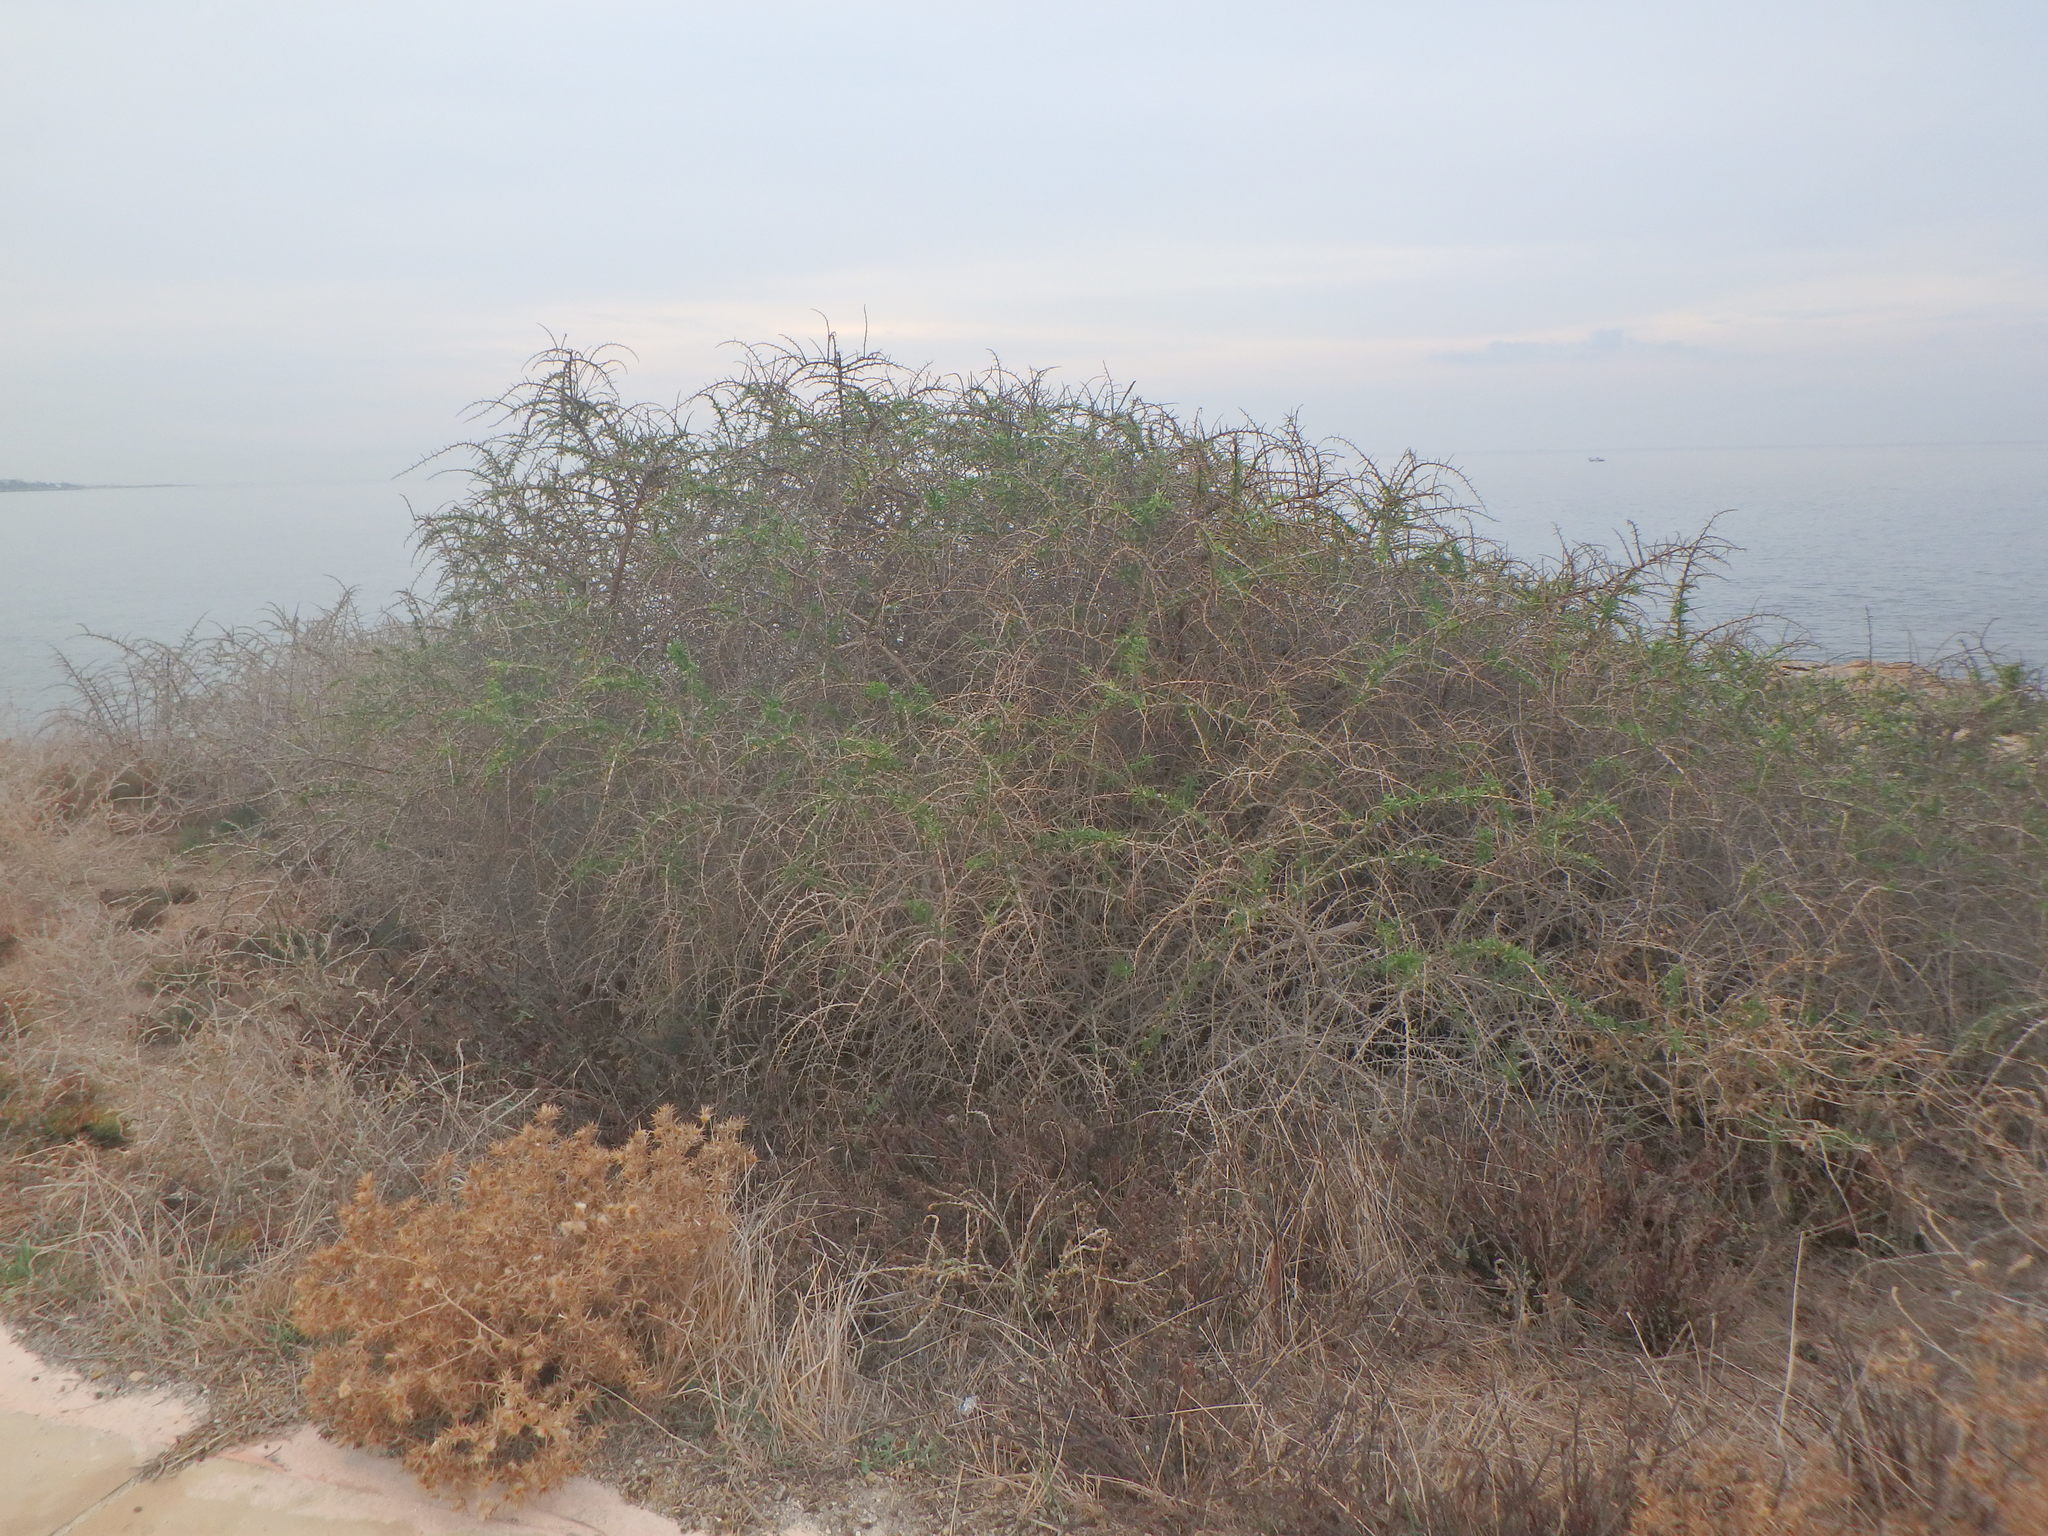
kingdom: Plantae
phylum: Tracheophyta
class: Magnoliopsida
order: Solanales
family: Solanaceae
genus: Lycium
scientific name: Lycium schweinfurthii
